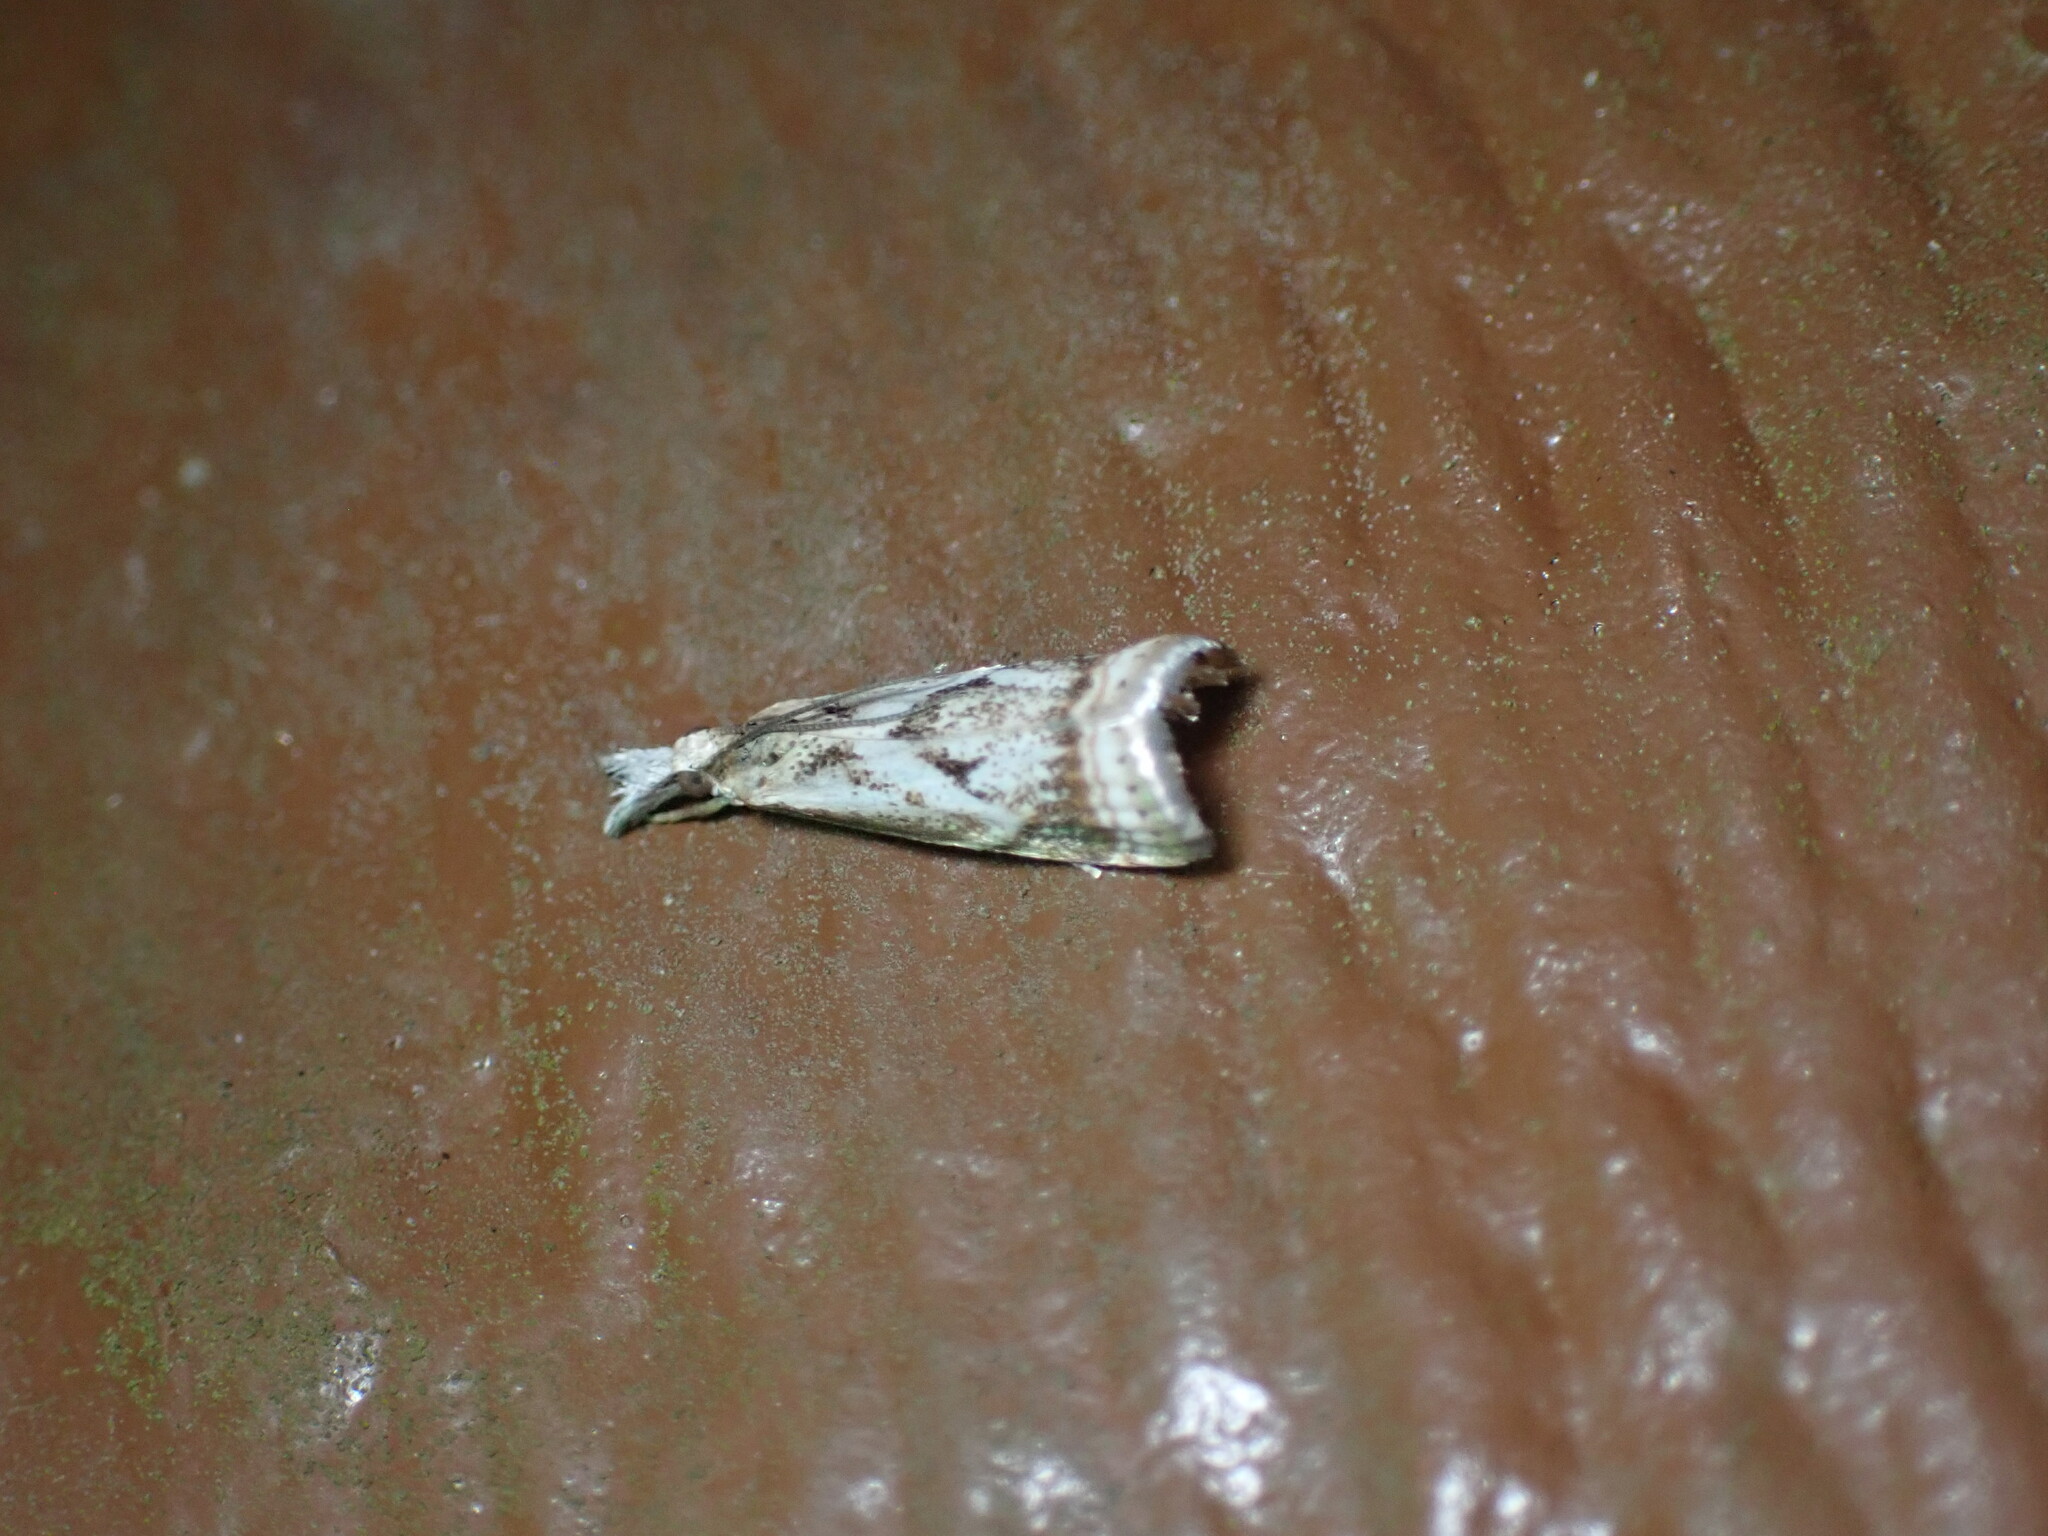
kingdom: Animalia
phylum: Arthropoda
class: Insecta
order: Lepidoptera
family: Crambidae
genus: Microcrambus
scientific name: Microcrambus elegans
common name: Elegant grass-veneer
